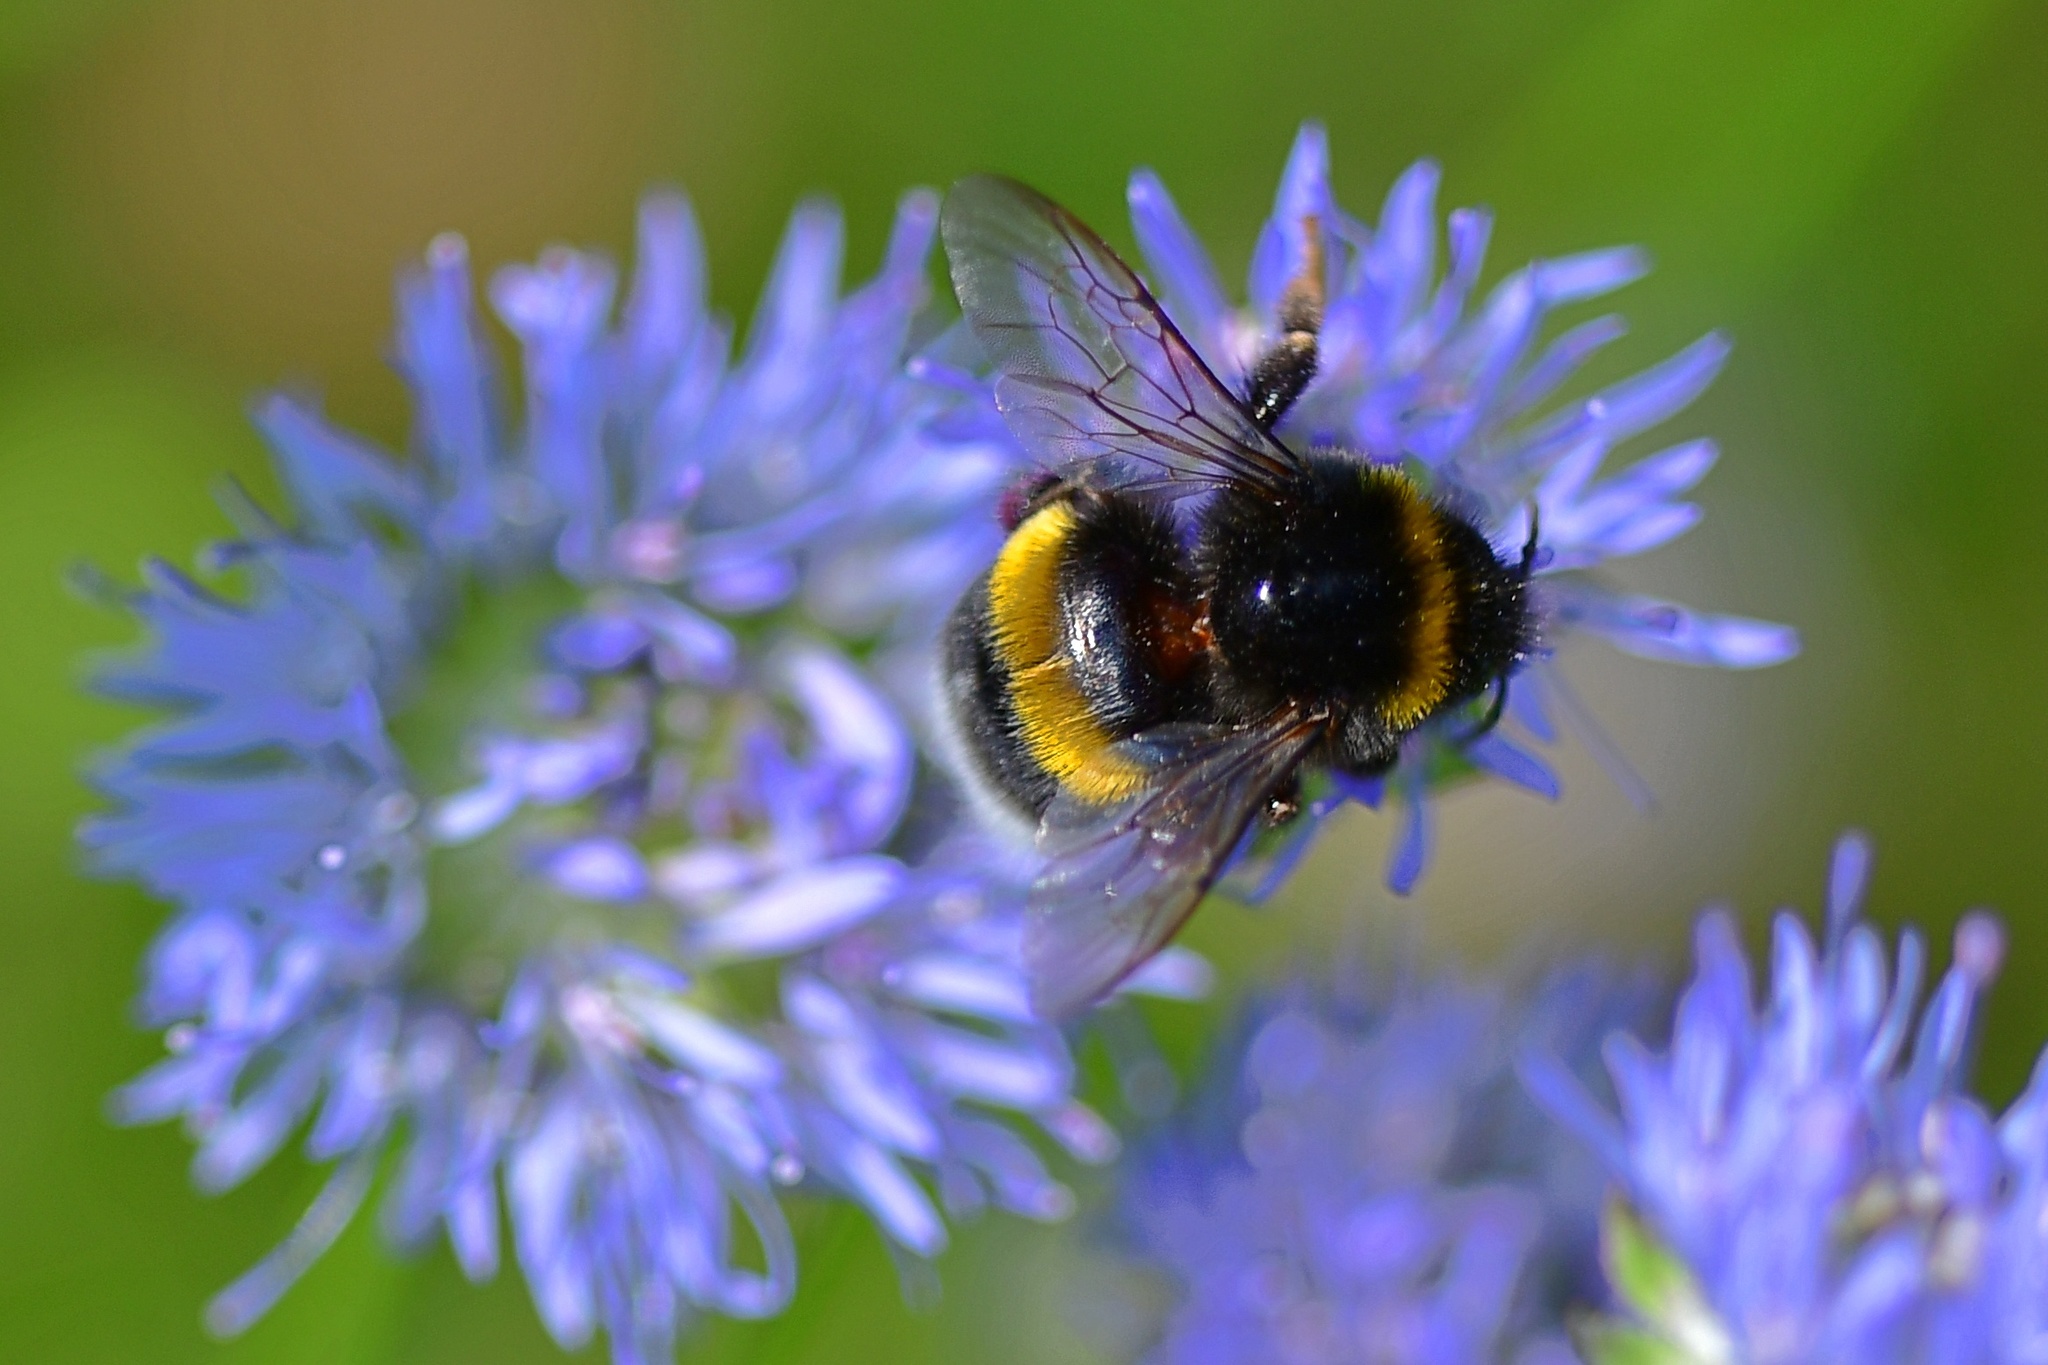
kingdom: Animalia
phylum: Arthropoda
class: Insecta
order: Hymenoptera
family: Apidae
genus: Bombus
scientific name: Bombus
